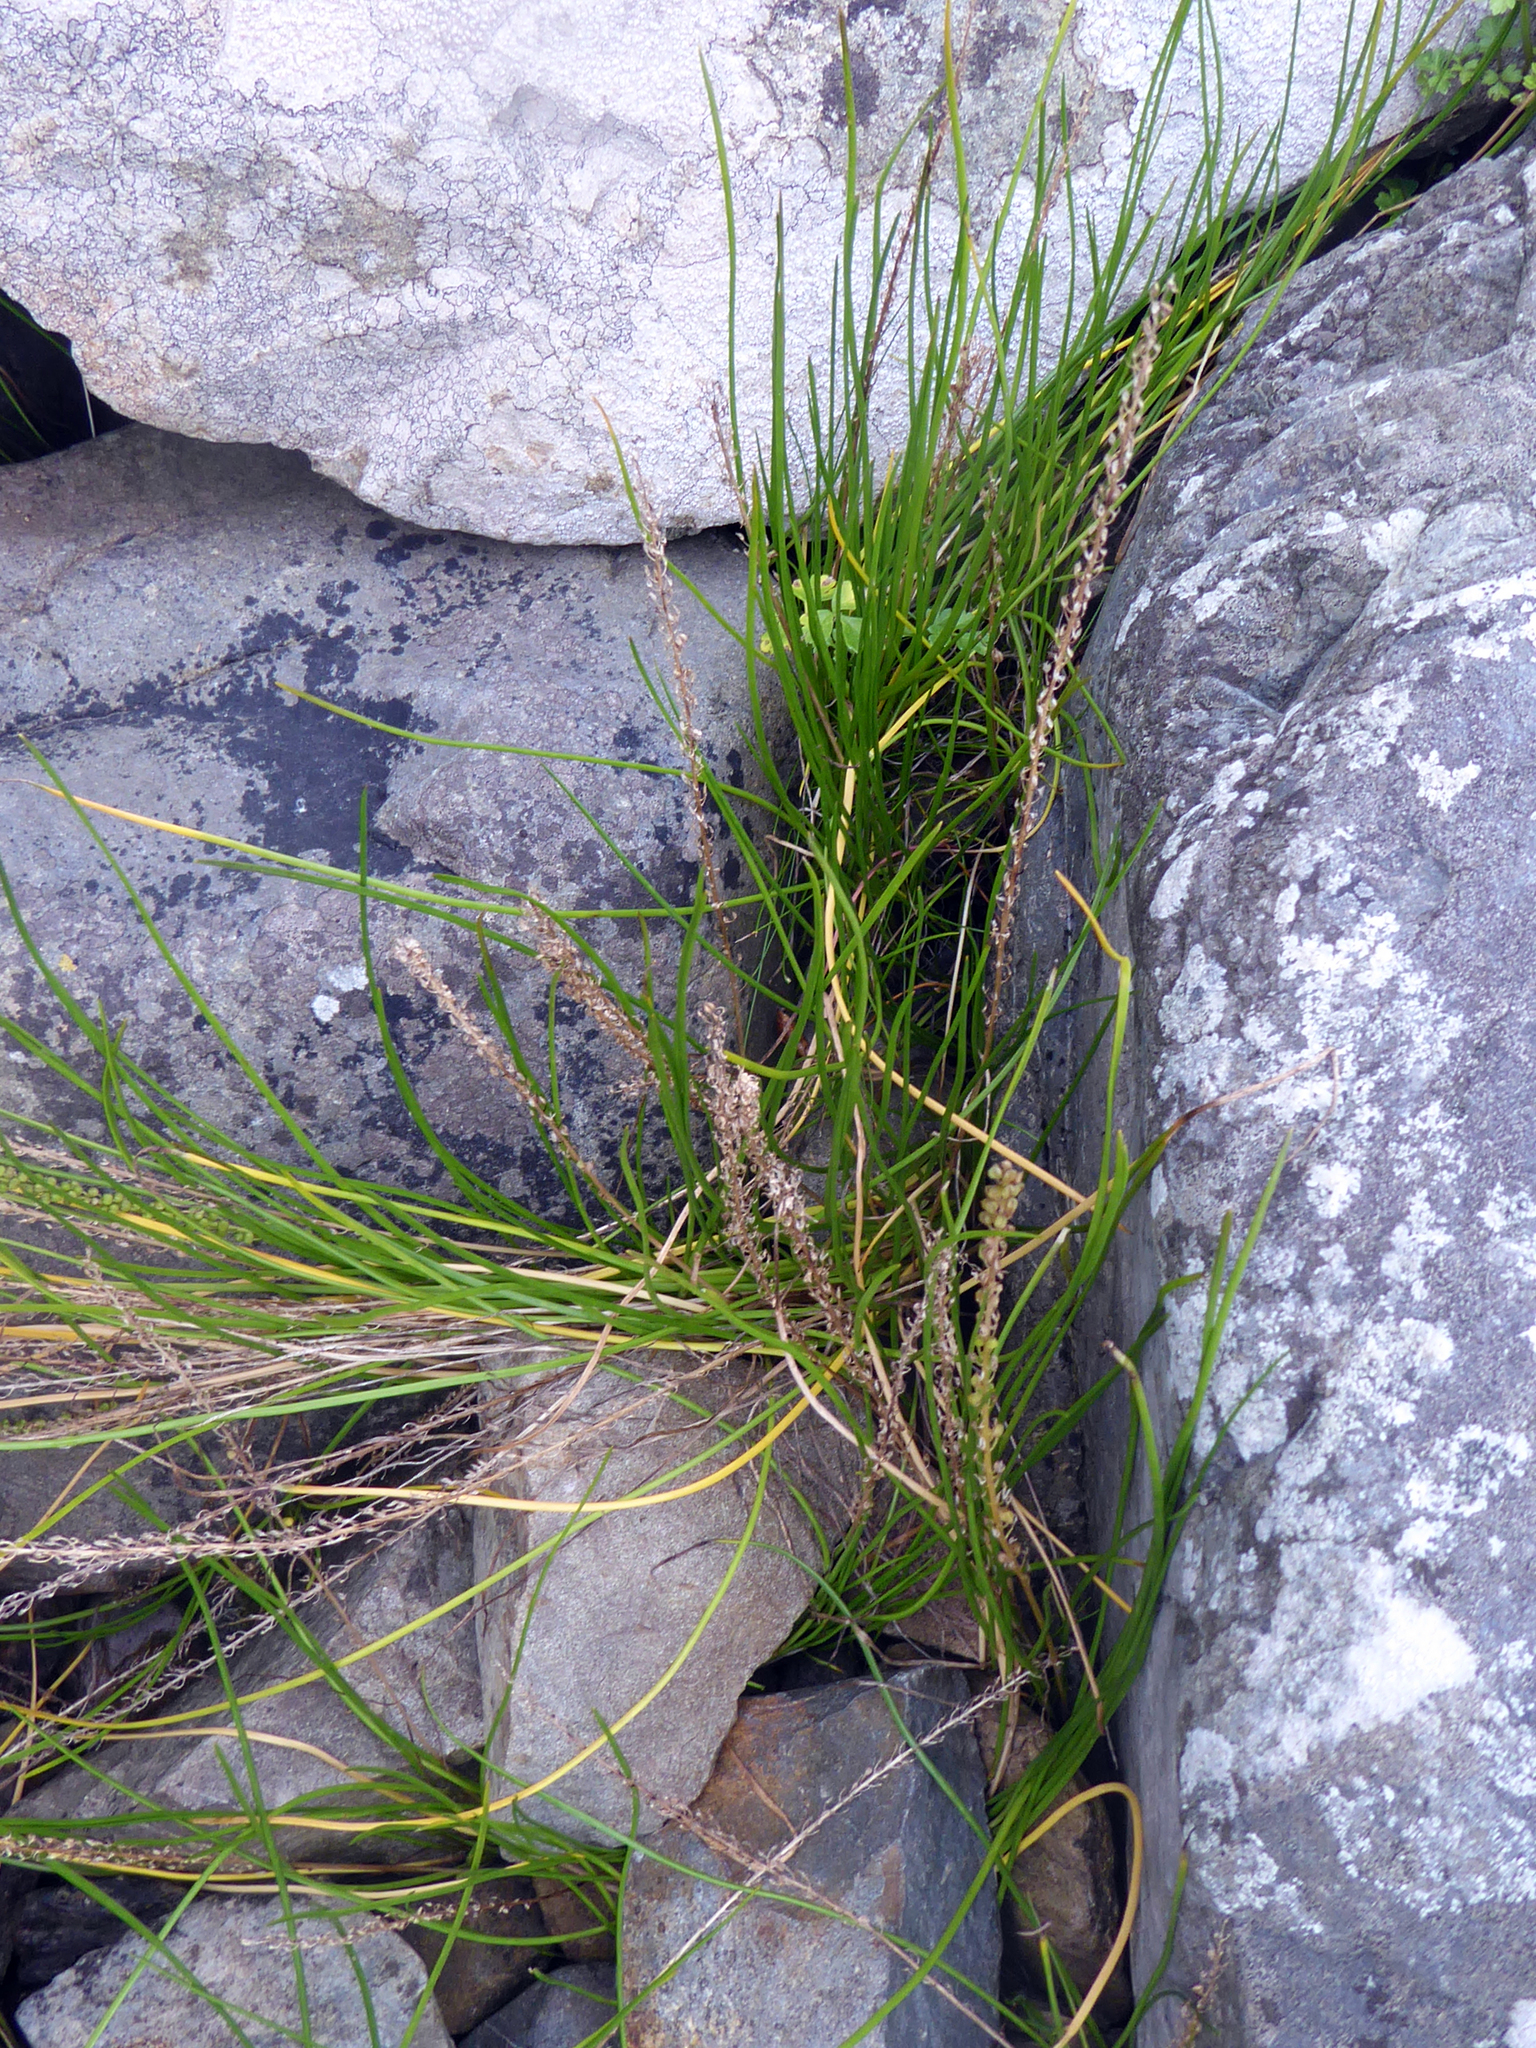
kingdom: Plantae
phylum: Tracheophyta
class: Liliopsida
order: Alismatales
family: Juncaginaceae
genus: Triglochin
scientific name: Triglochin striata
